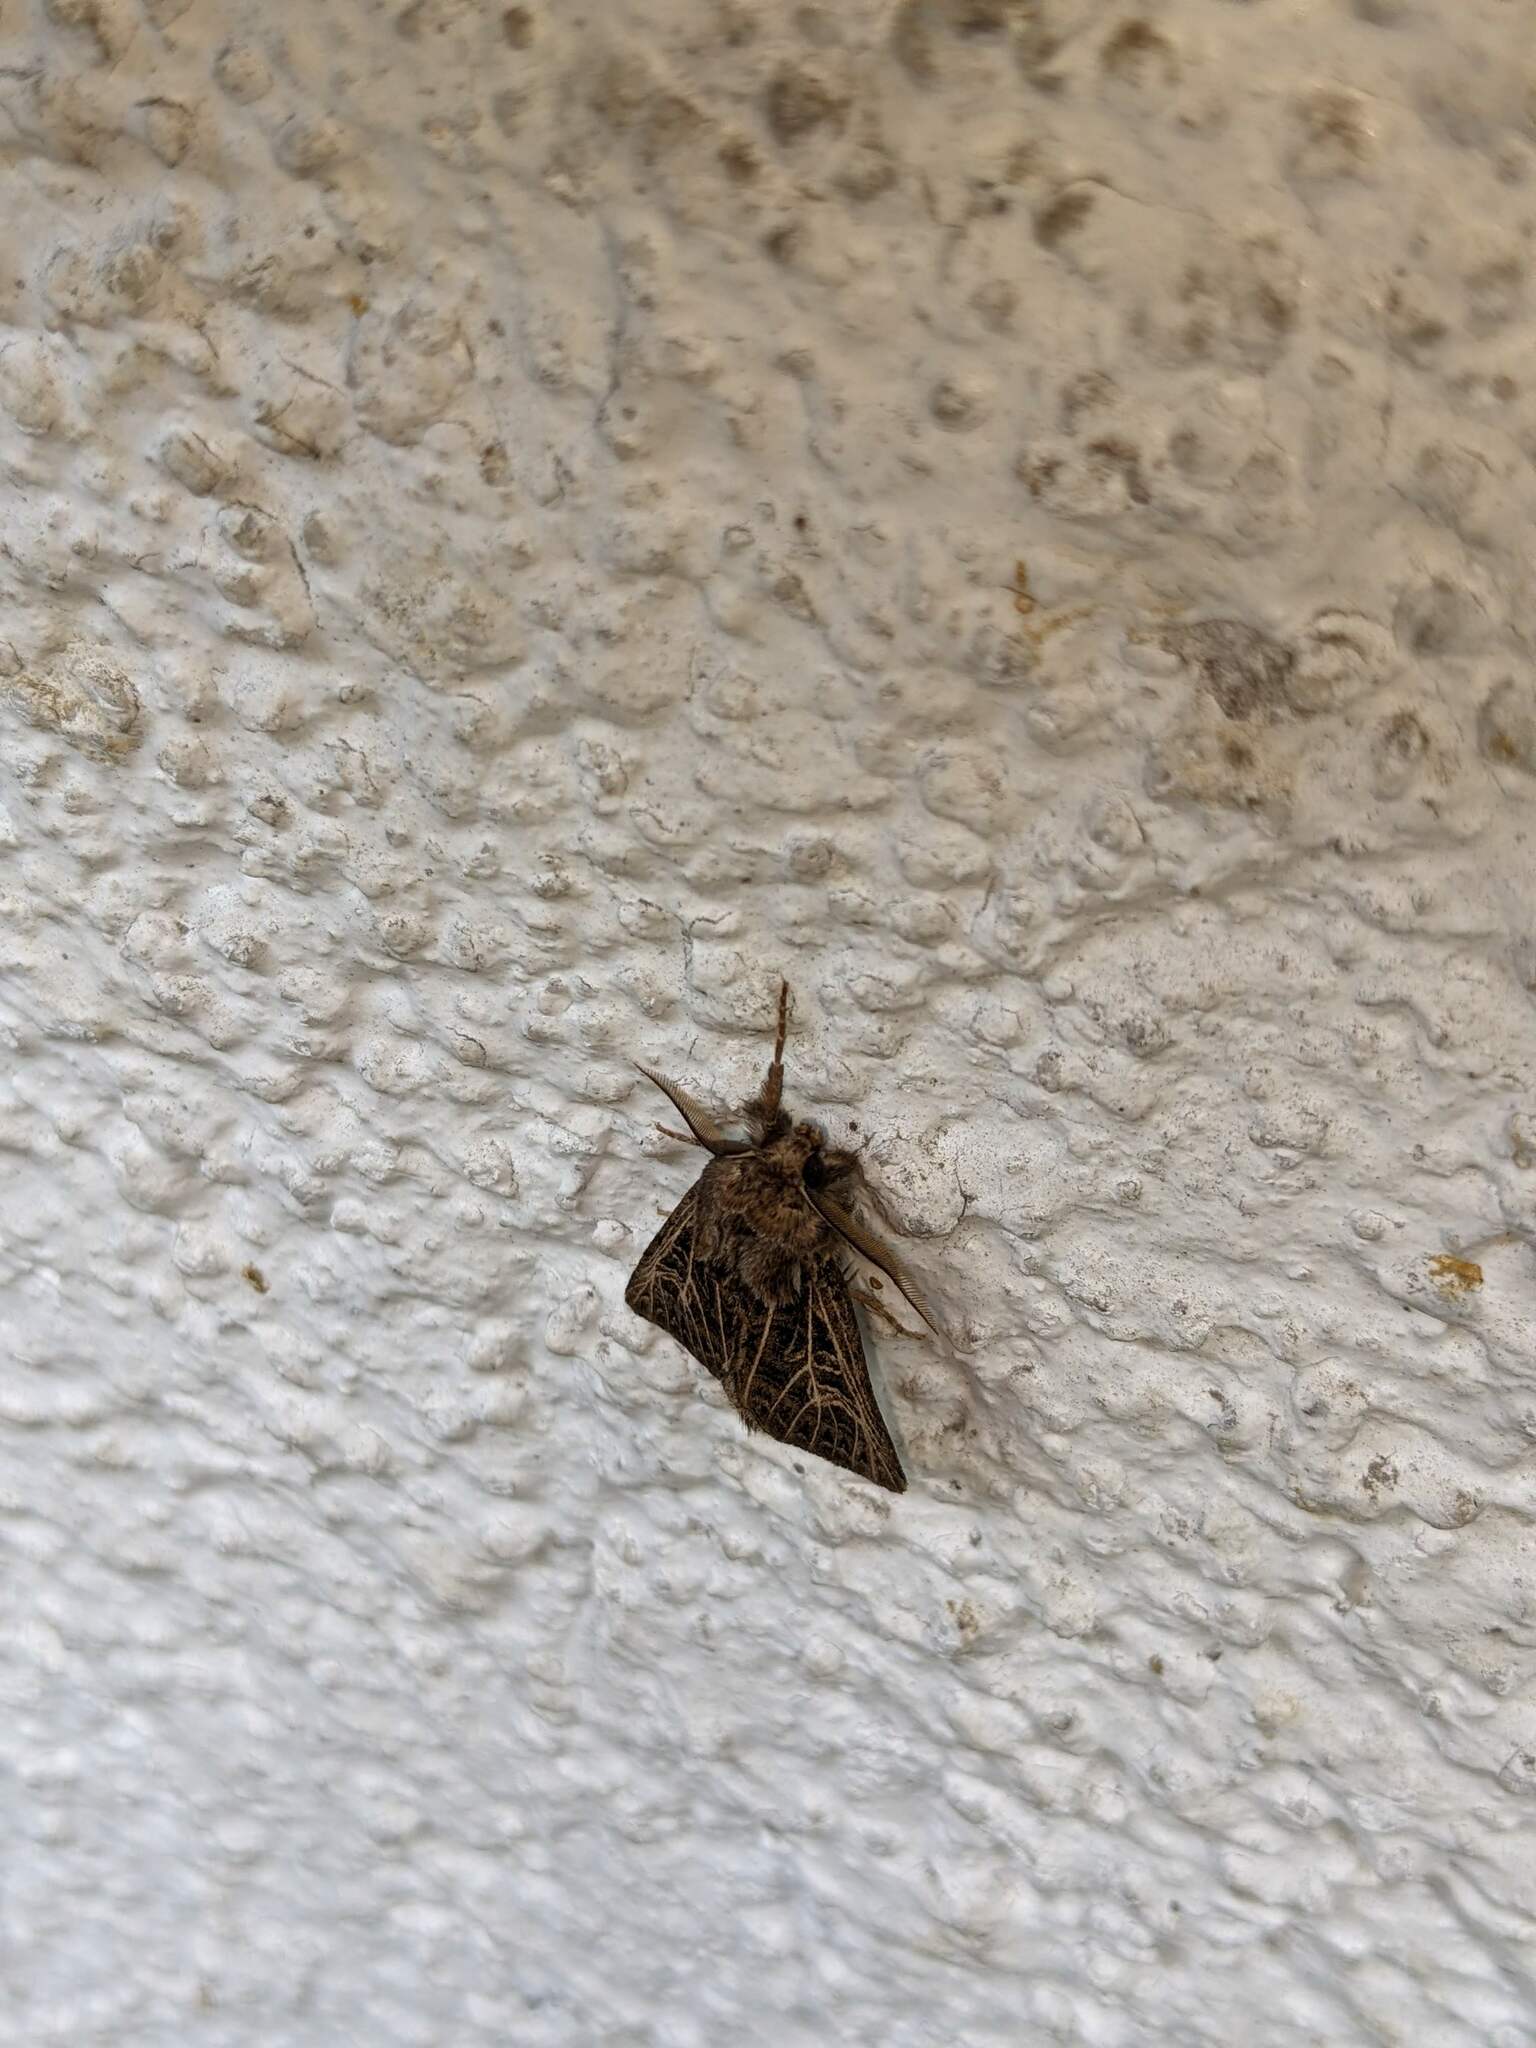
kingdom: Animalia
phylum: Arthropoda
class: Insecta
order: Lepidoptera
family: Noctuidae
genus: Tholera
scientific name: Tholera decimalis
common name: Feathered gothic
